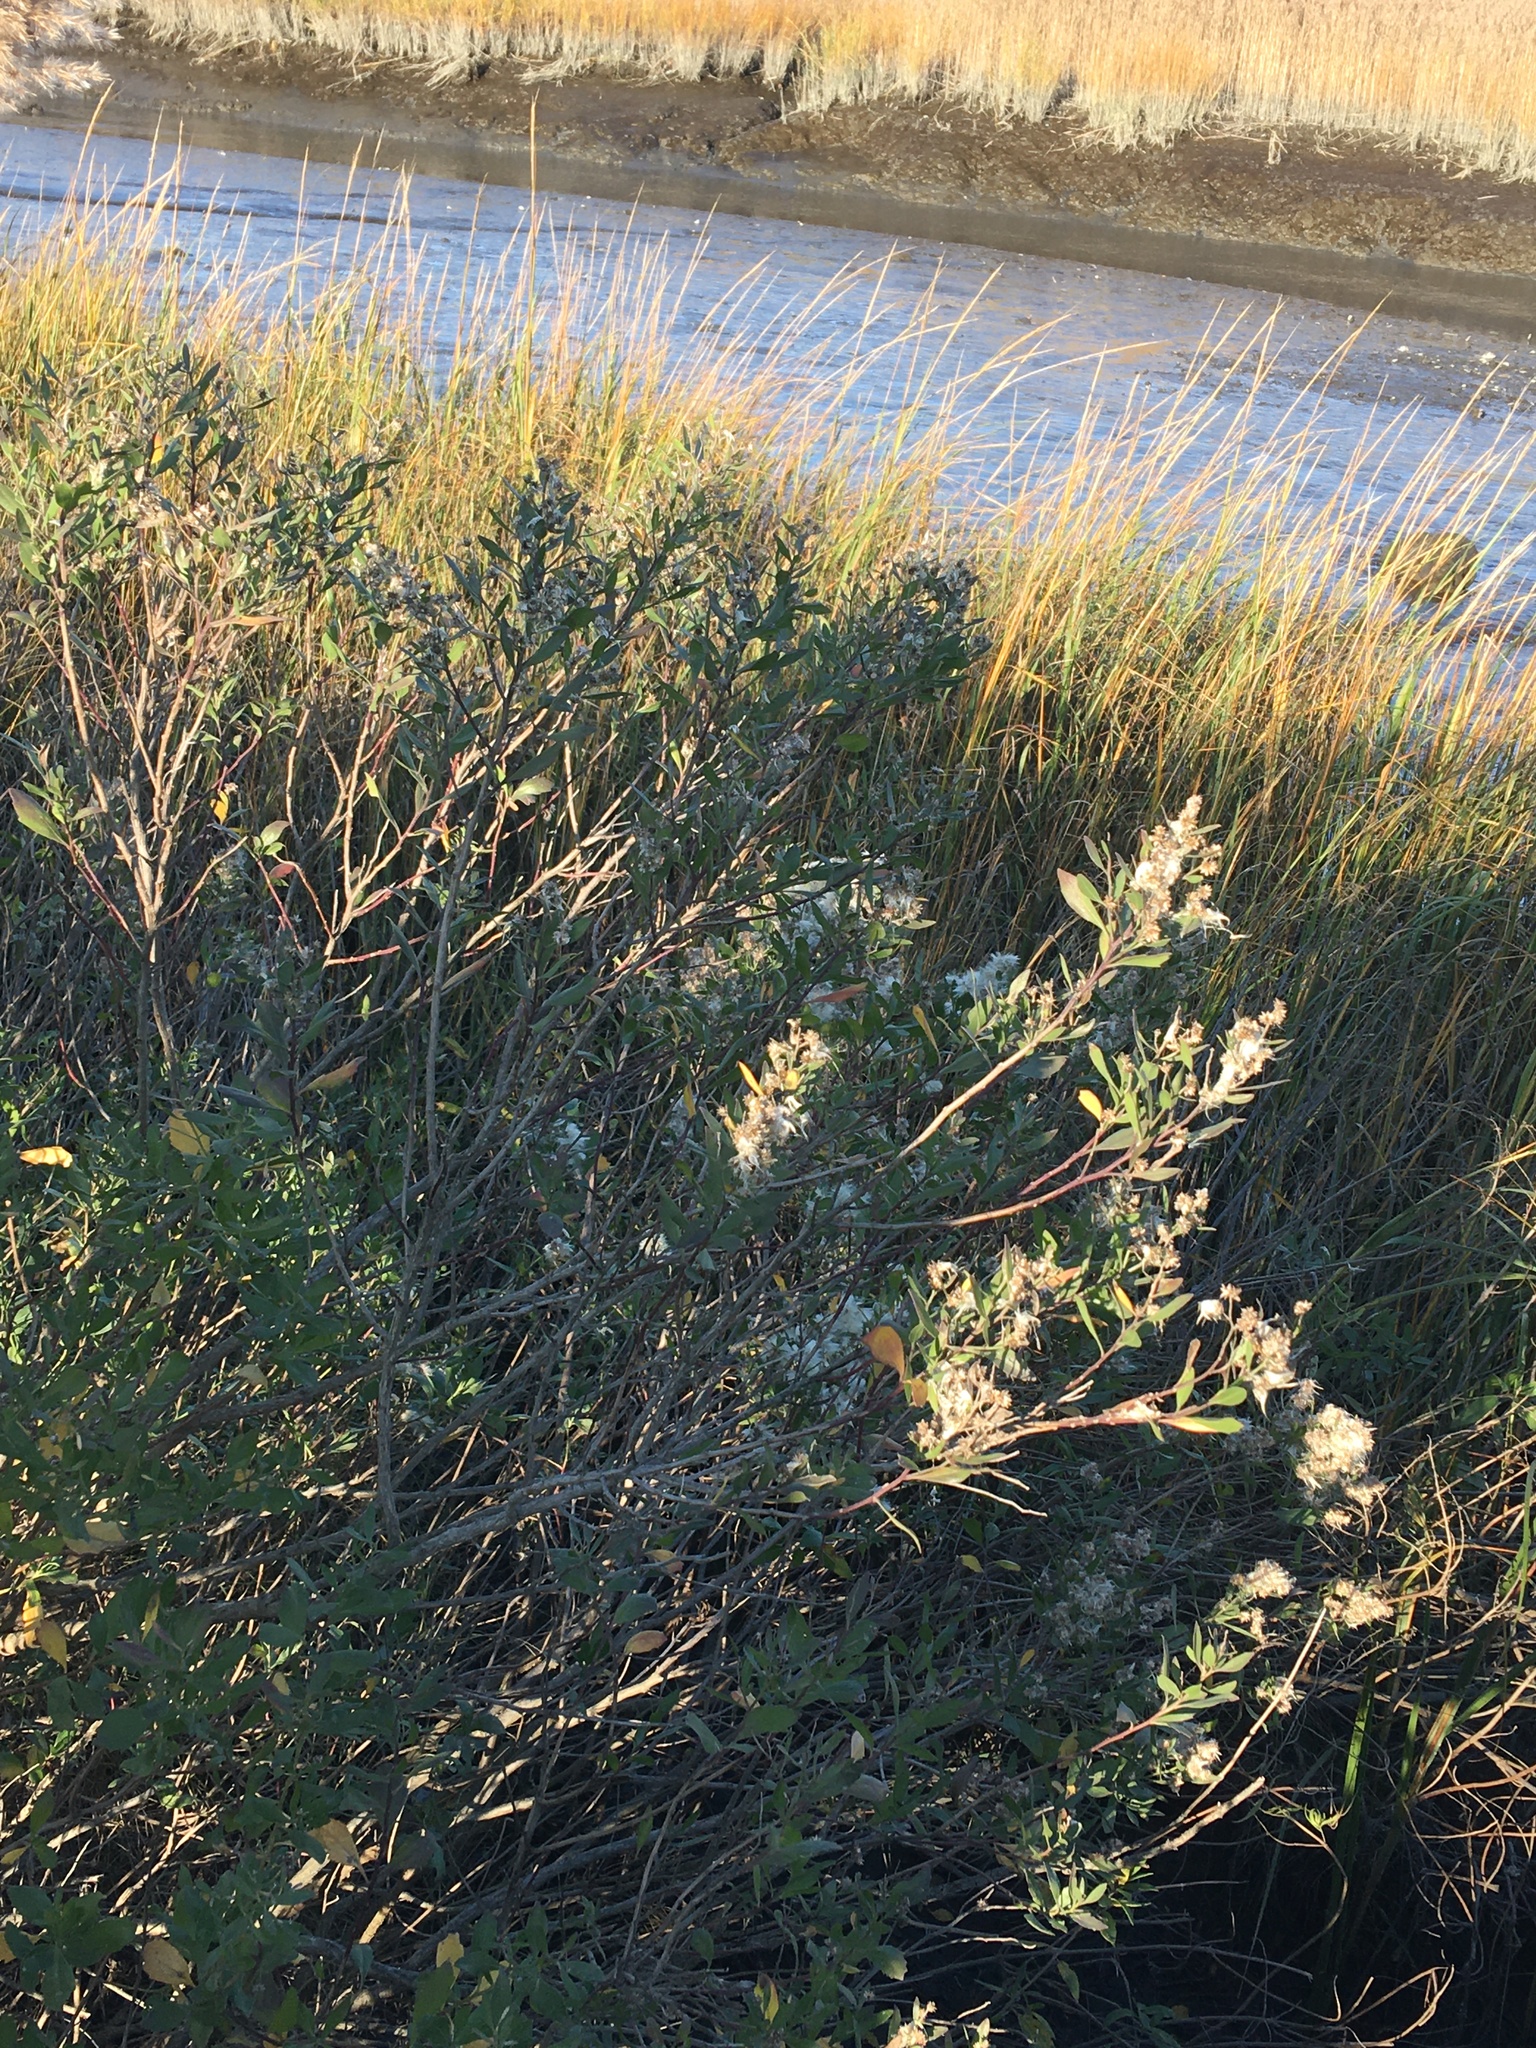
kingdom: Plantae
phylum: Tracheophyta
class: Magnoliopsida
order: Asterales
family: Asteraceae
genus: Baccharis
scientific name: Baccharis halimifolia
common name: Eastern baccharis
